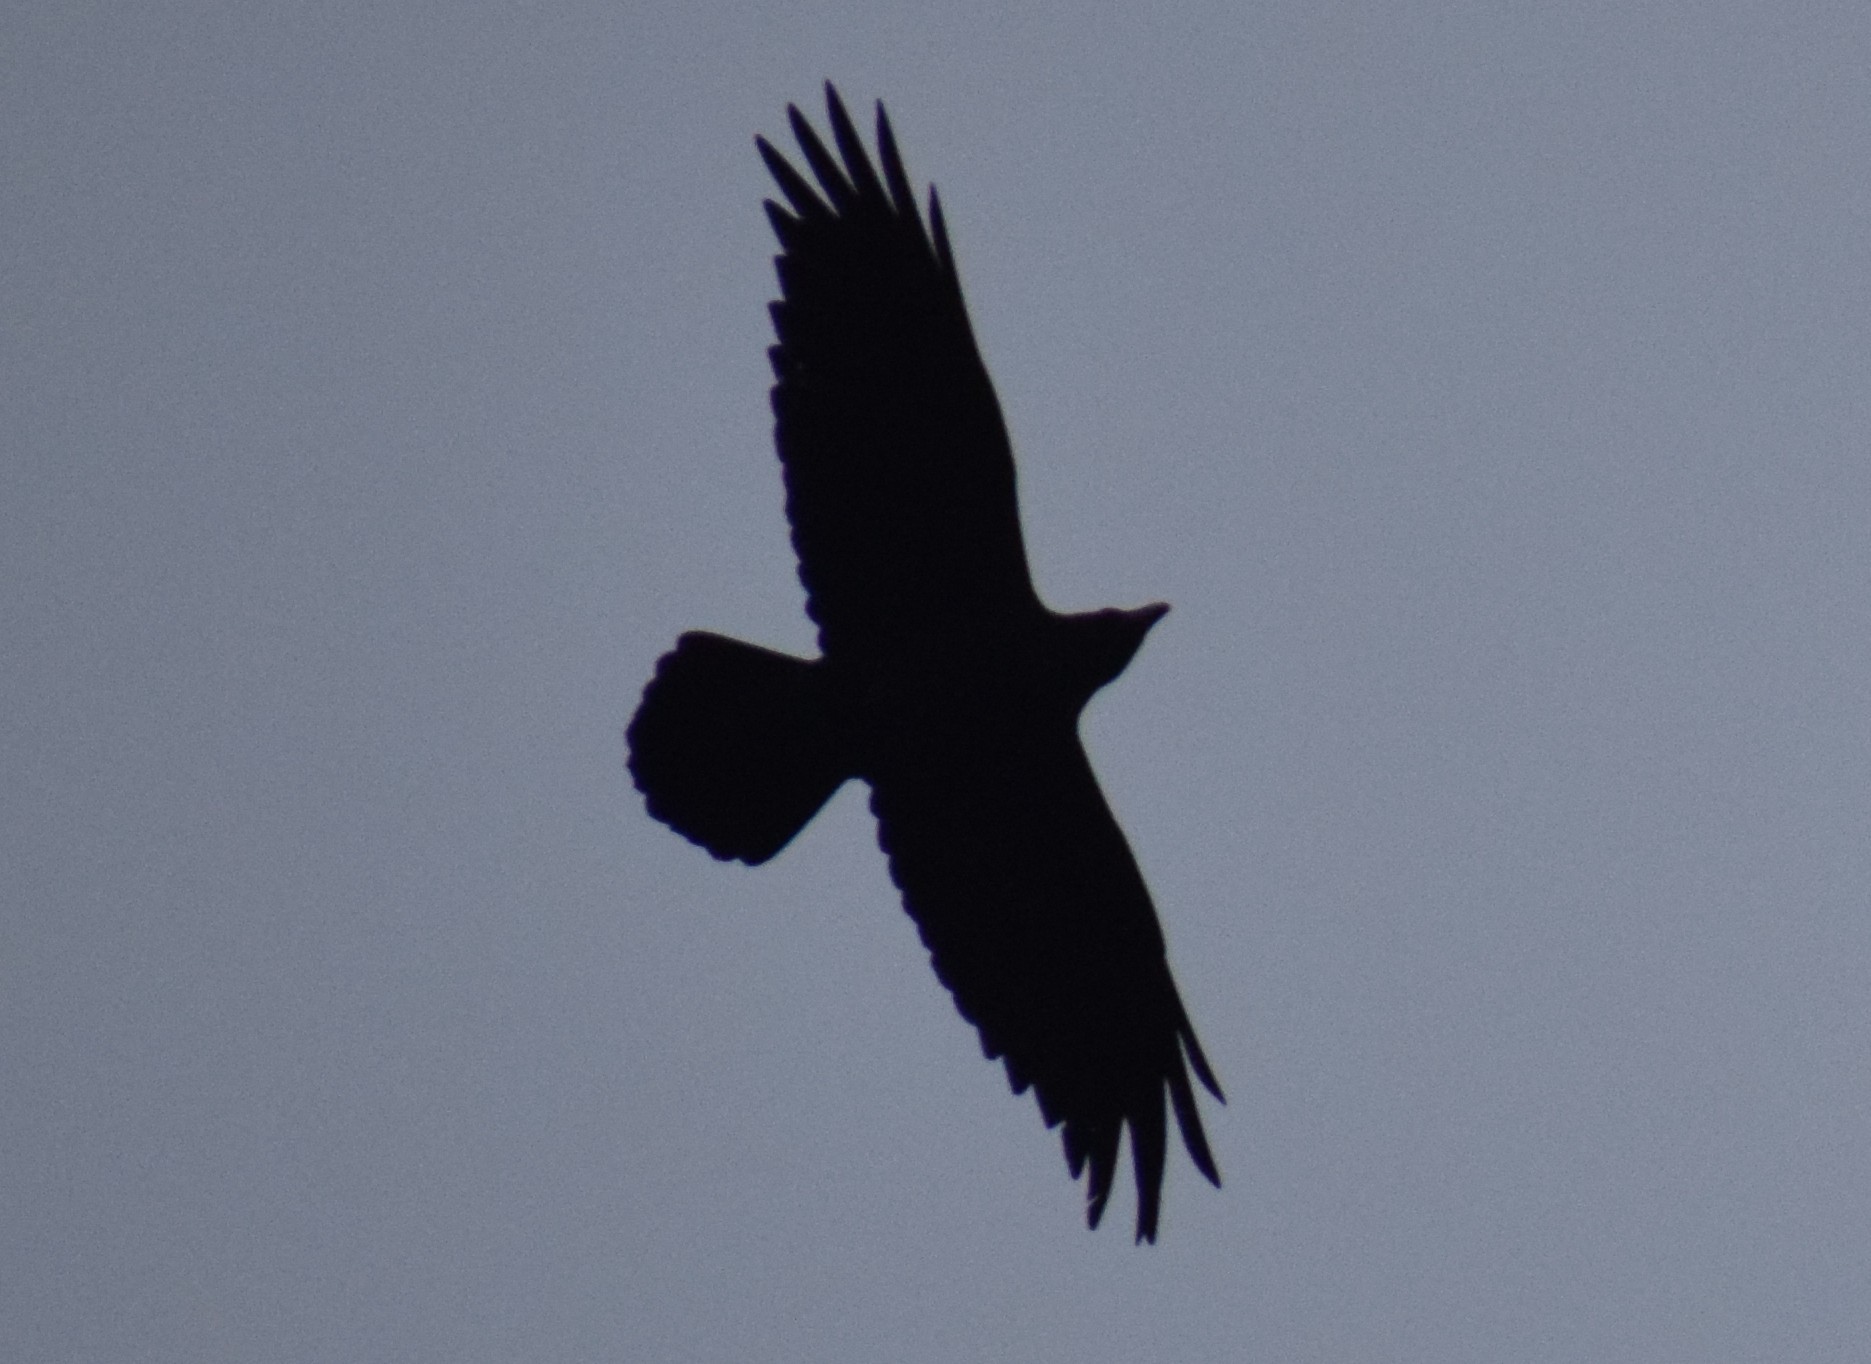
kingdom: Animalia
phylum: Chordata
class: Aves
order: Passeriformes
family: Corvidae
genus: Corvus
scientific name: Corvus corax
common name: Common raven
